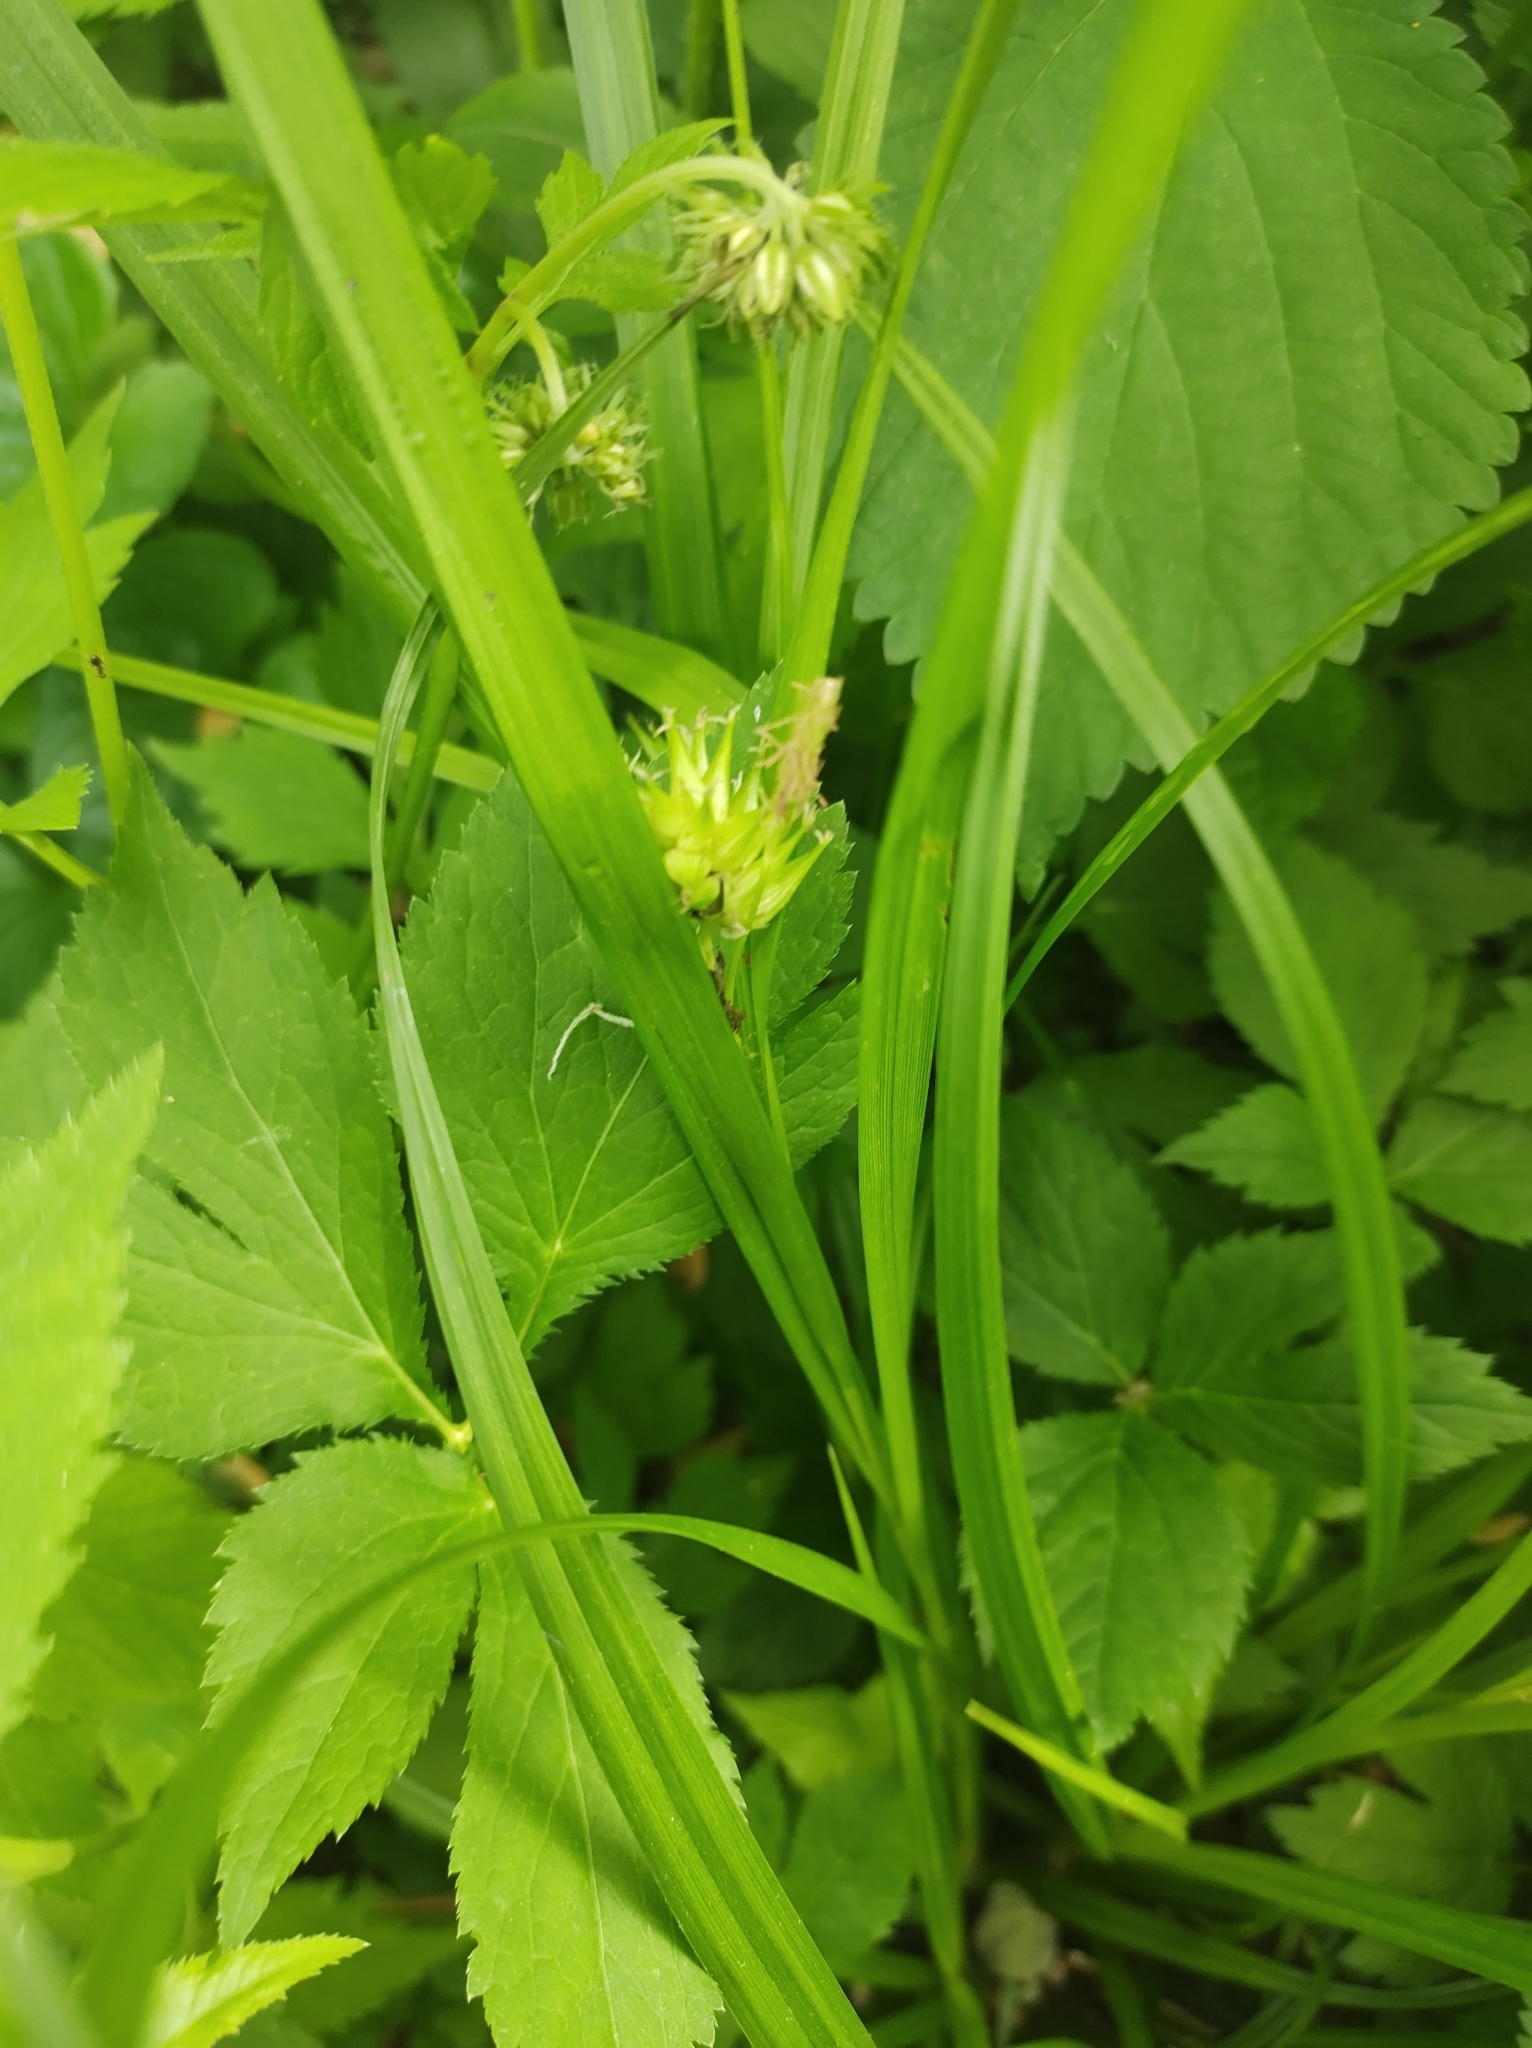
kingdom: Plantae
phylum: Tracheophyta
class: Liliopsida
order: Poales
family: Cyperaceae
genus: Carex
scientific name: Carex grayi
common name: Asa gray's sedge
